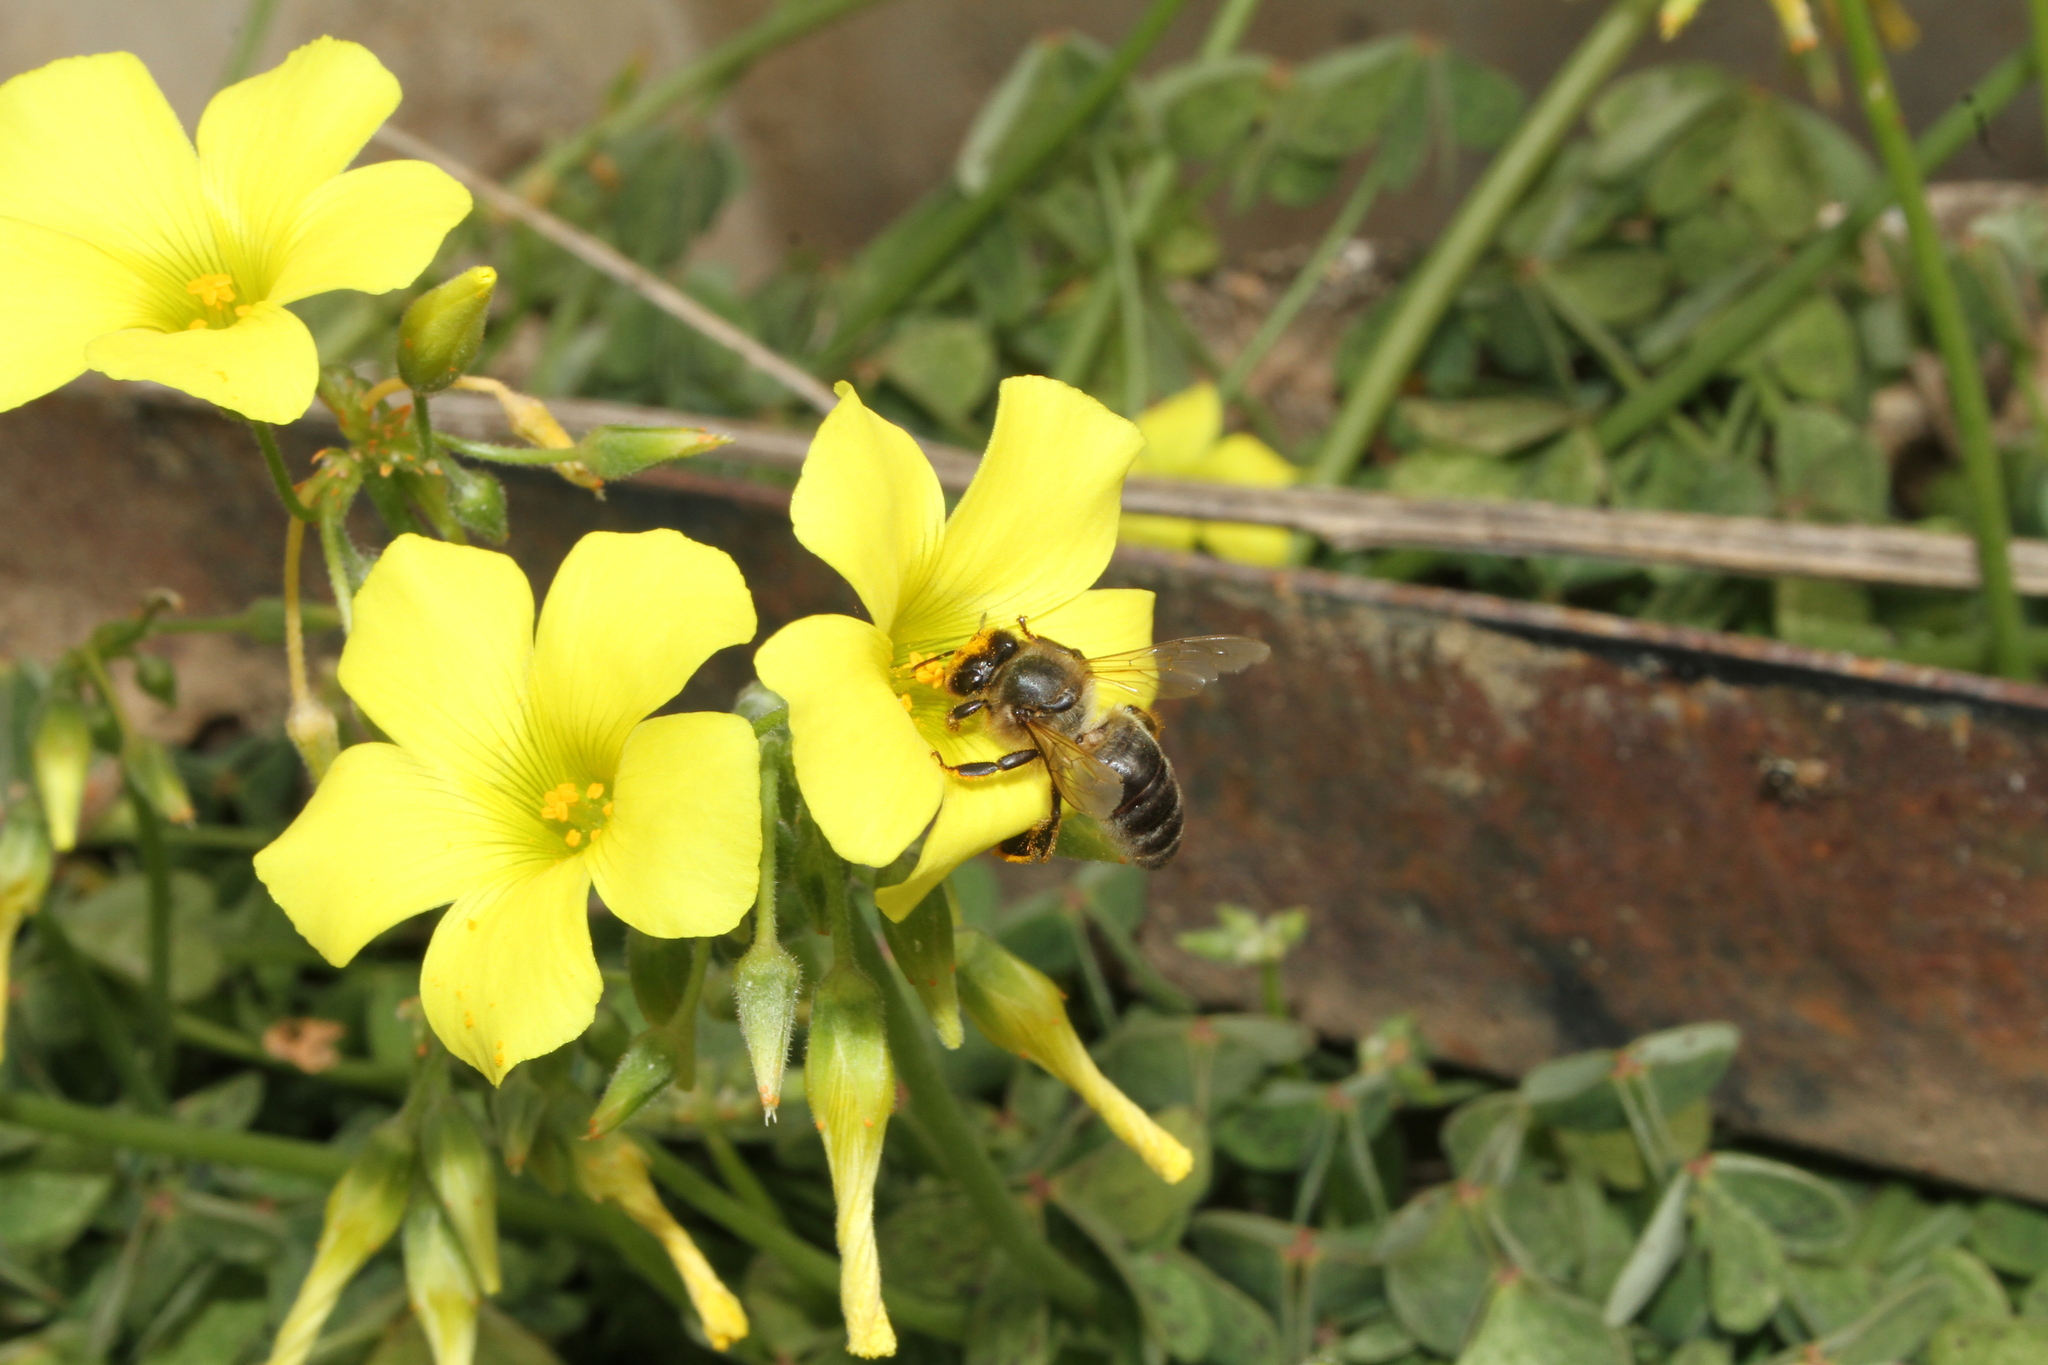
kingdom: Animalia
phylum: Arthropoda
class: Insecta
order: Hymenoptera
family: Apidae
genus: Apis
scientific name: Apis mellifera
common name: Honey bee
